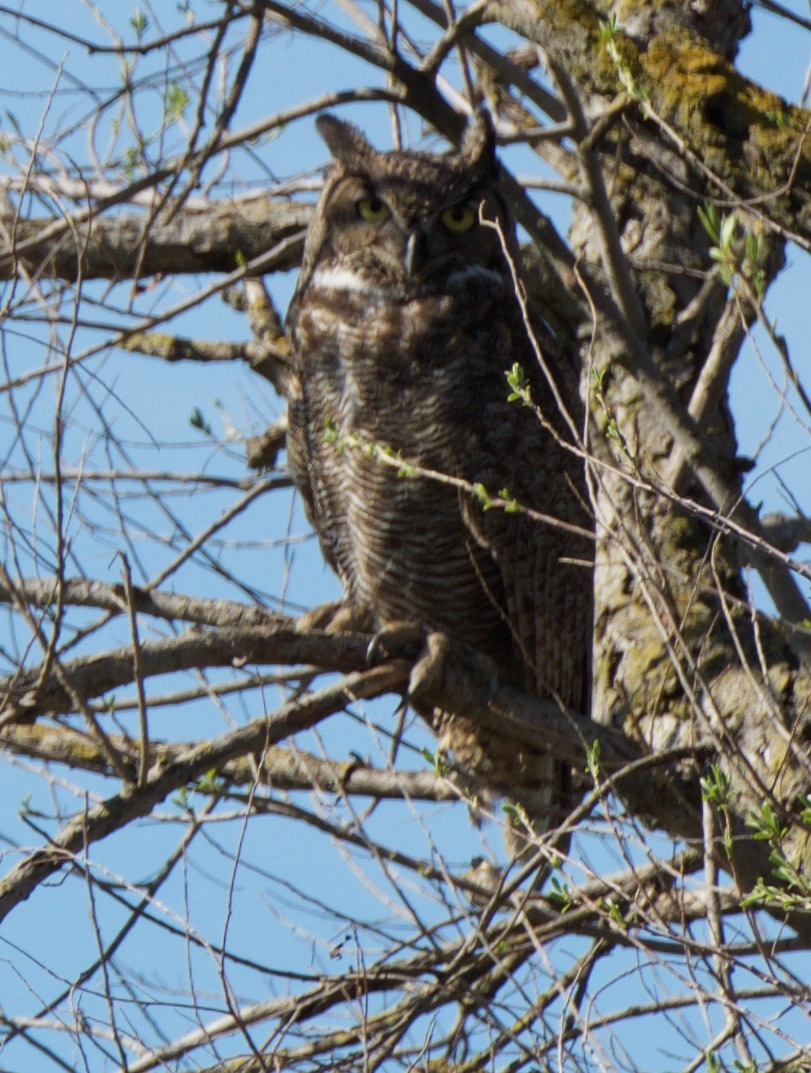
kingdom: Animalia
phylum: Chordata
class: Aves
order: Strigiformes
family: Strigidae
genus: Bubo
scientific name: Bubo virginianus
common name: Great horned owl
